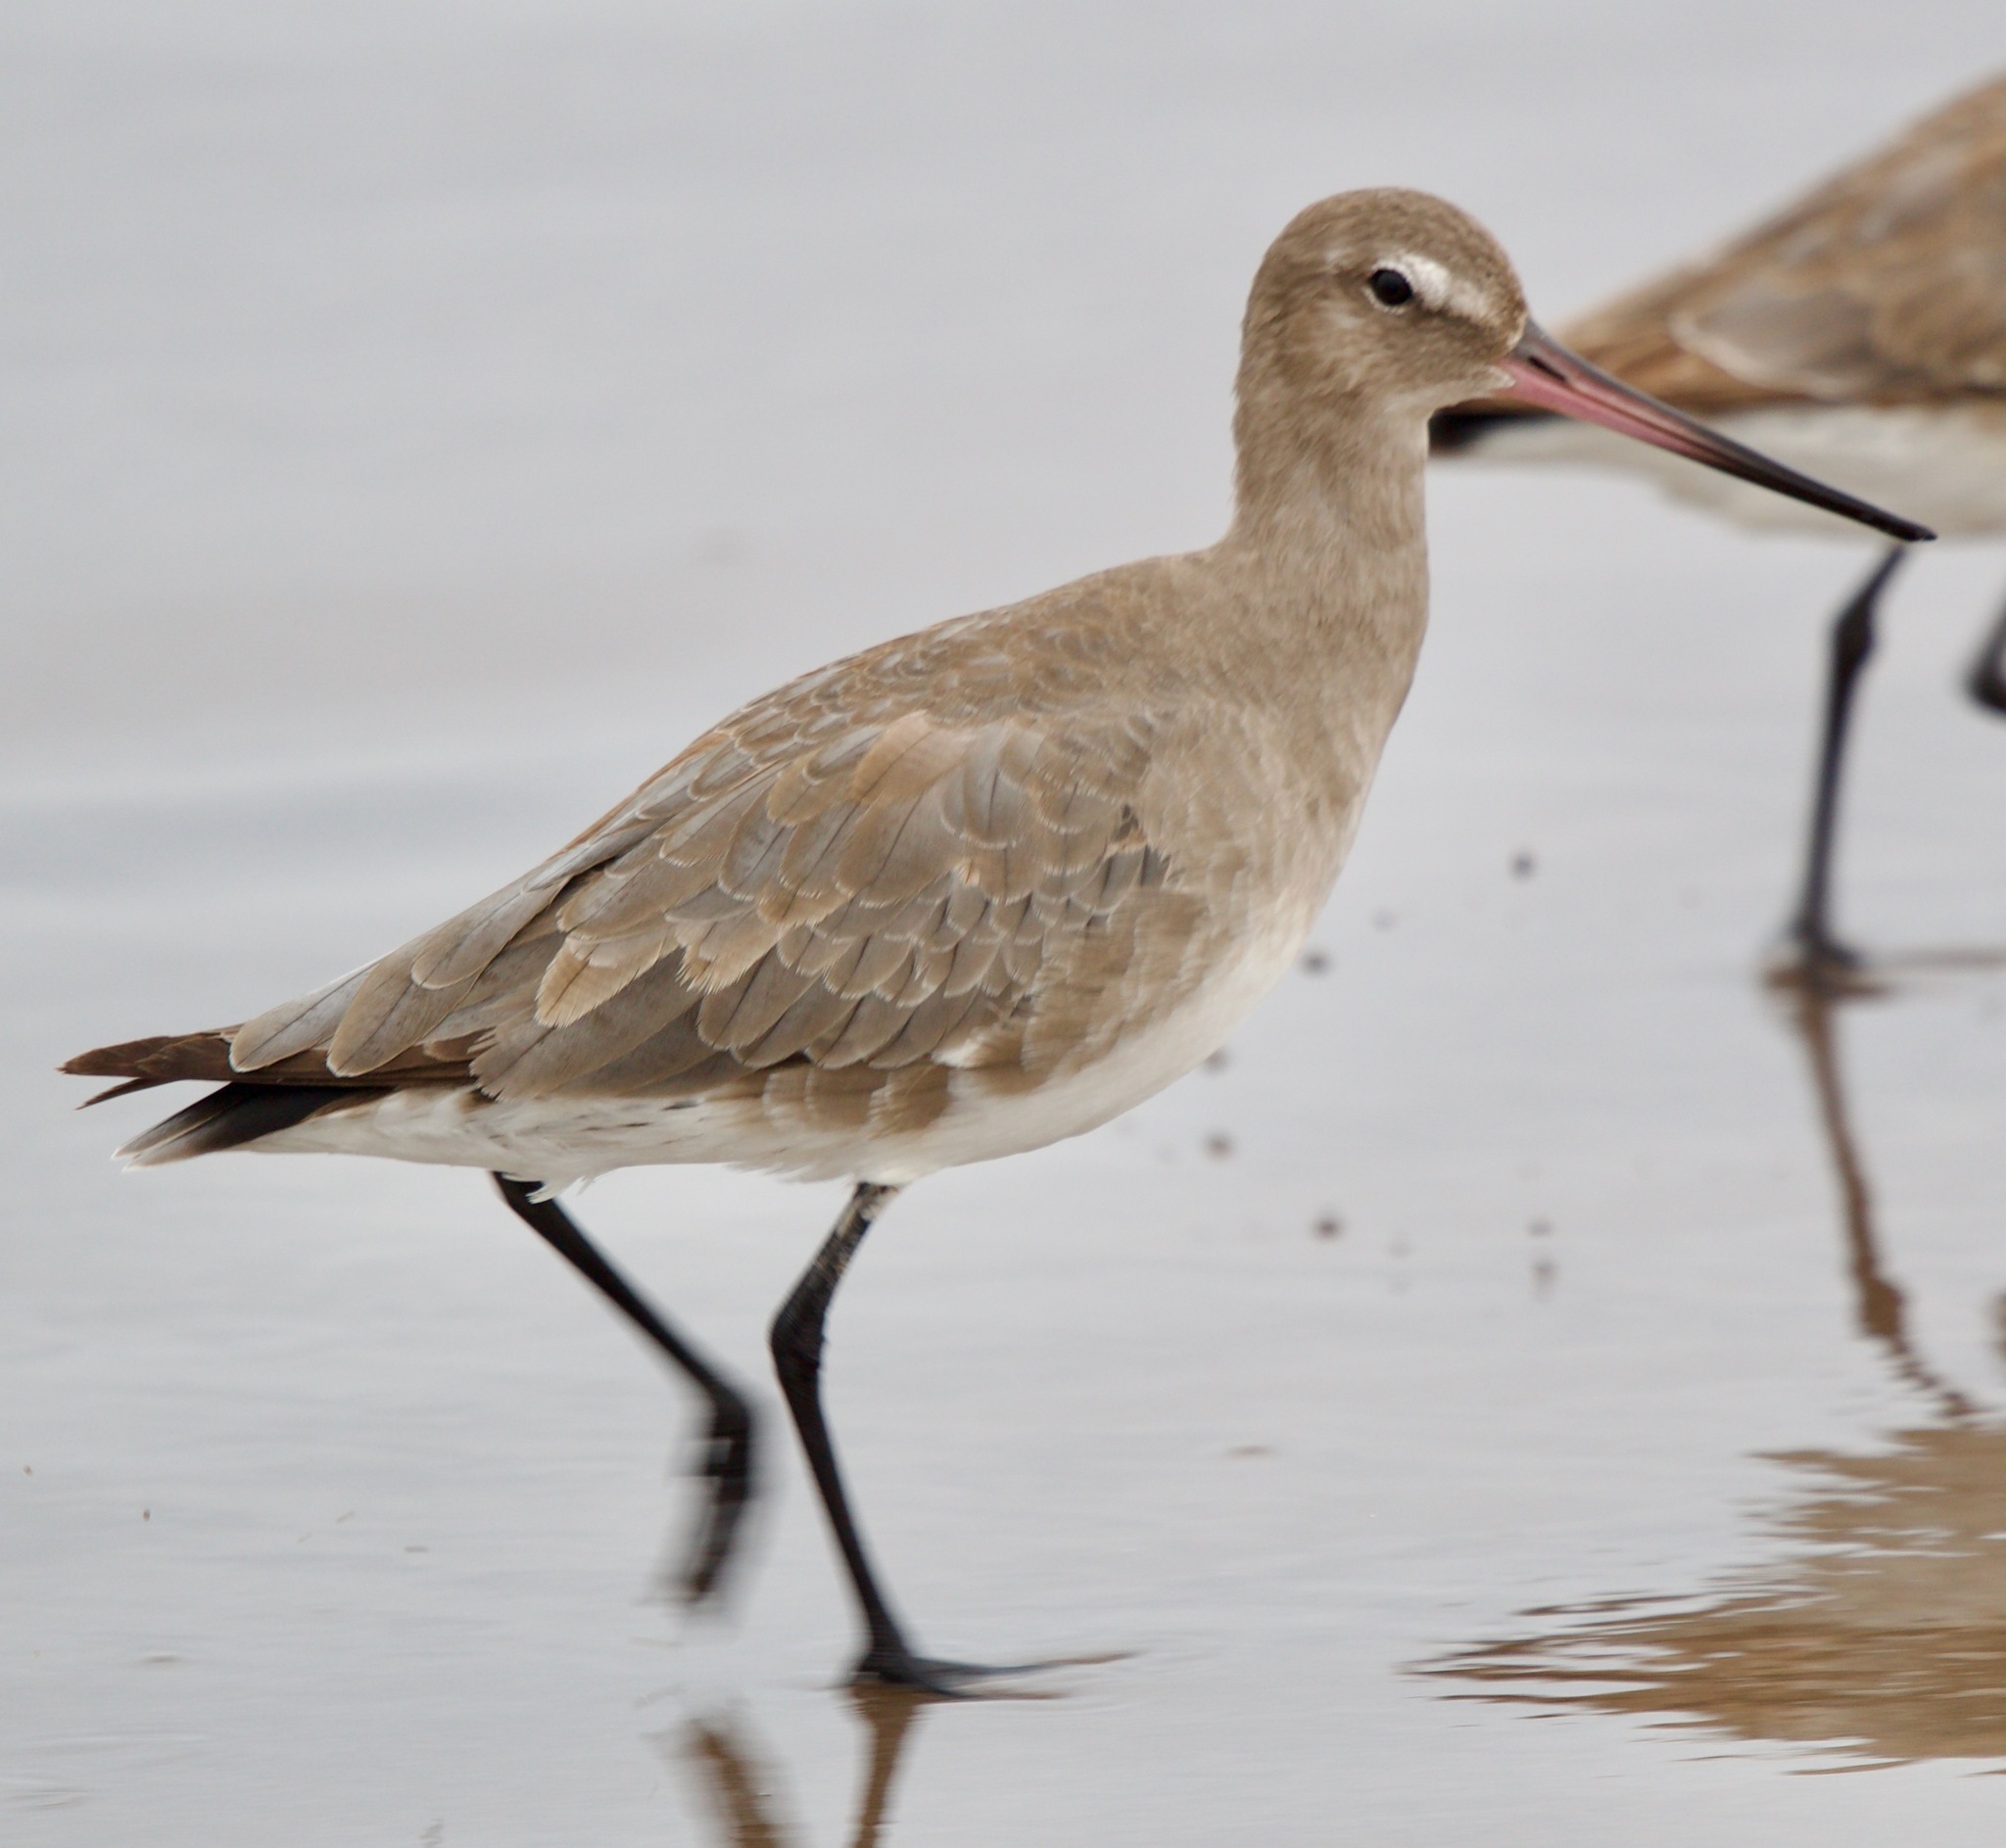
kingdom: Animalia
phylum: Chordata
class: Aves
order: Charadriiformes
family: Scolopacidae
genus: Limosa
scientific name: Limosa haemastica
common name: Hudsonian godwit
